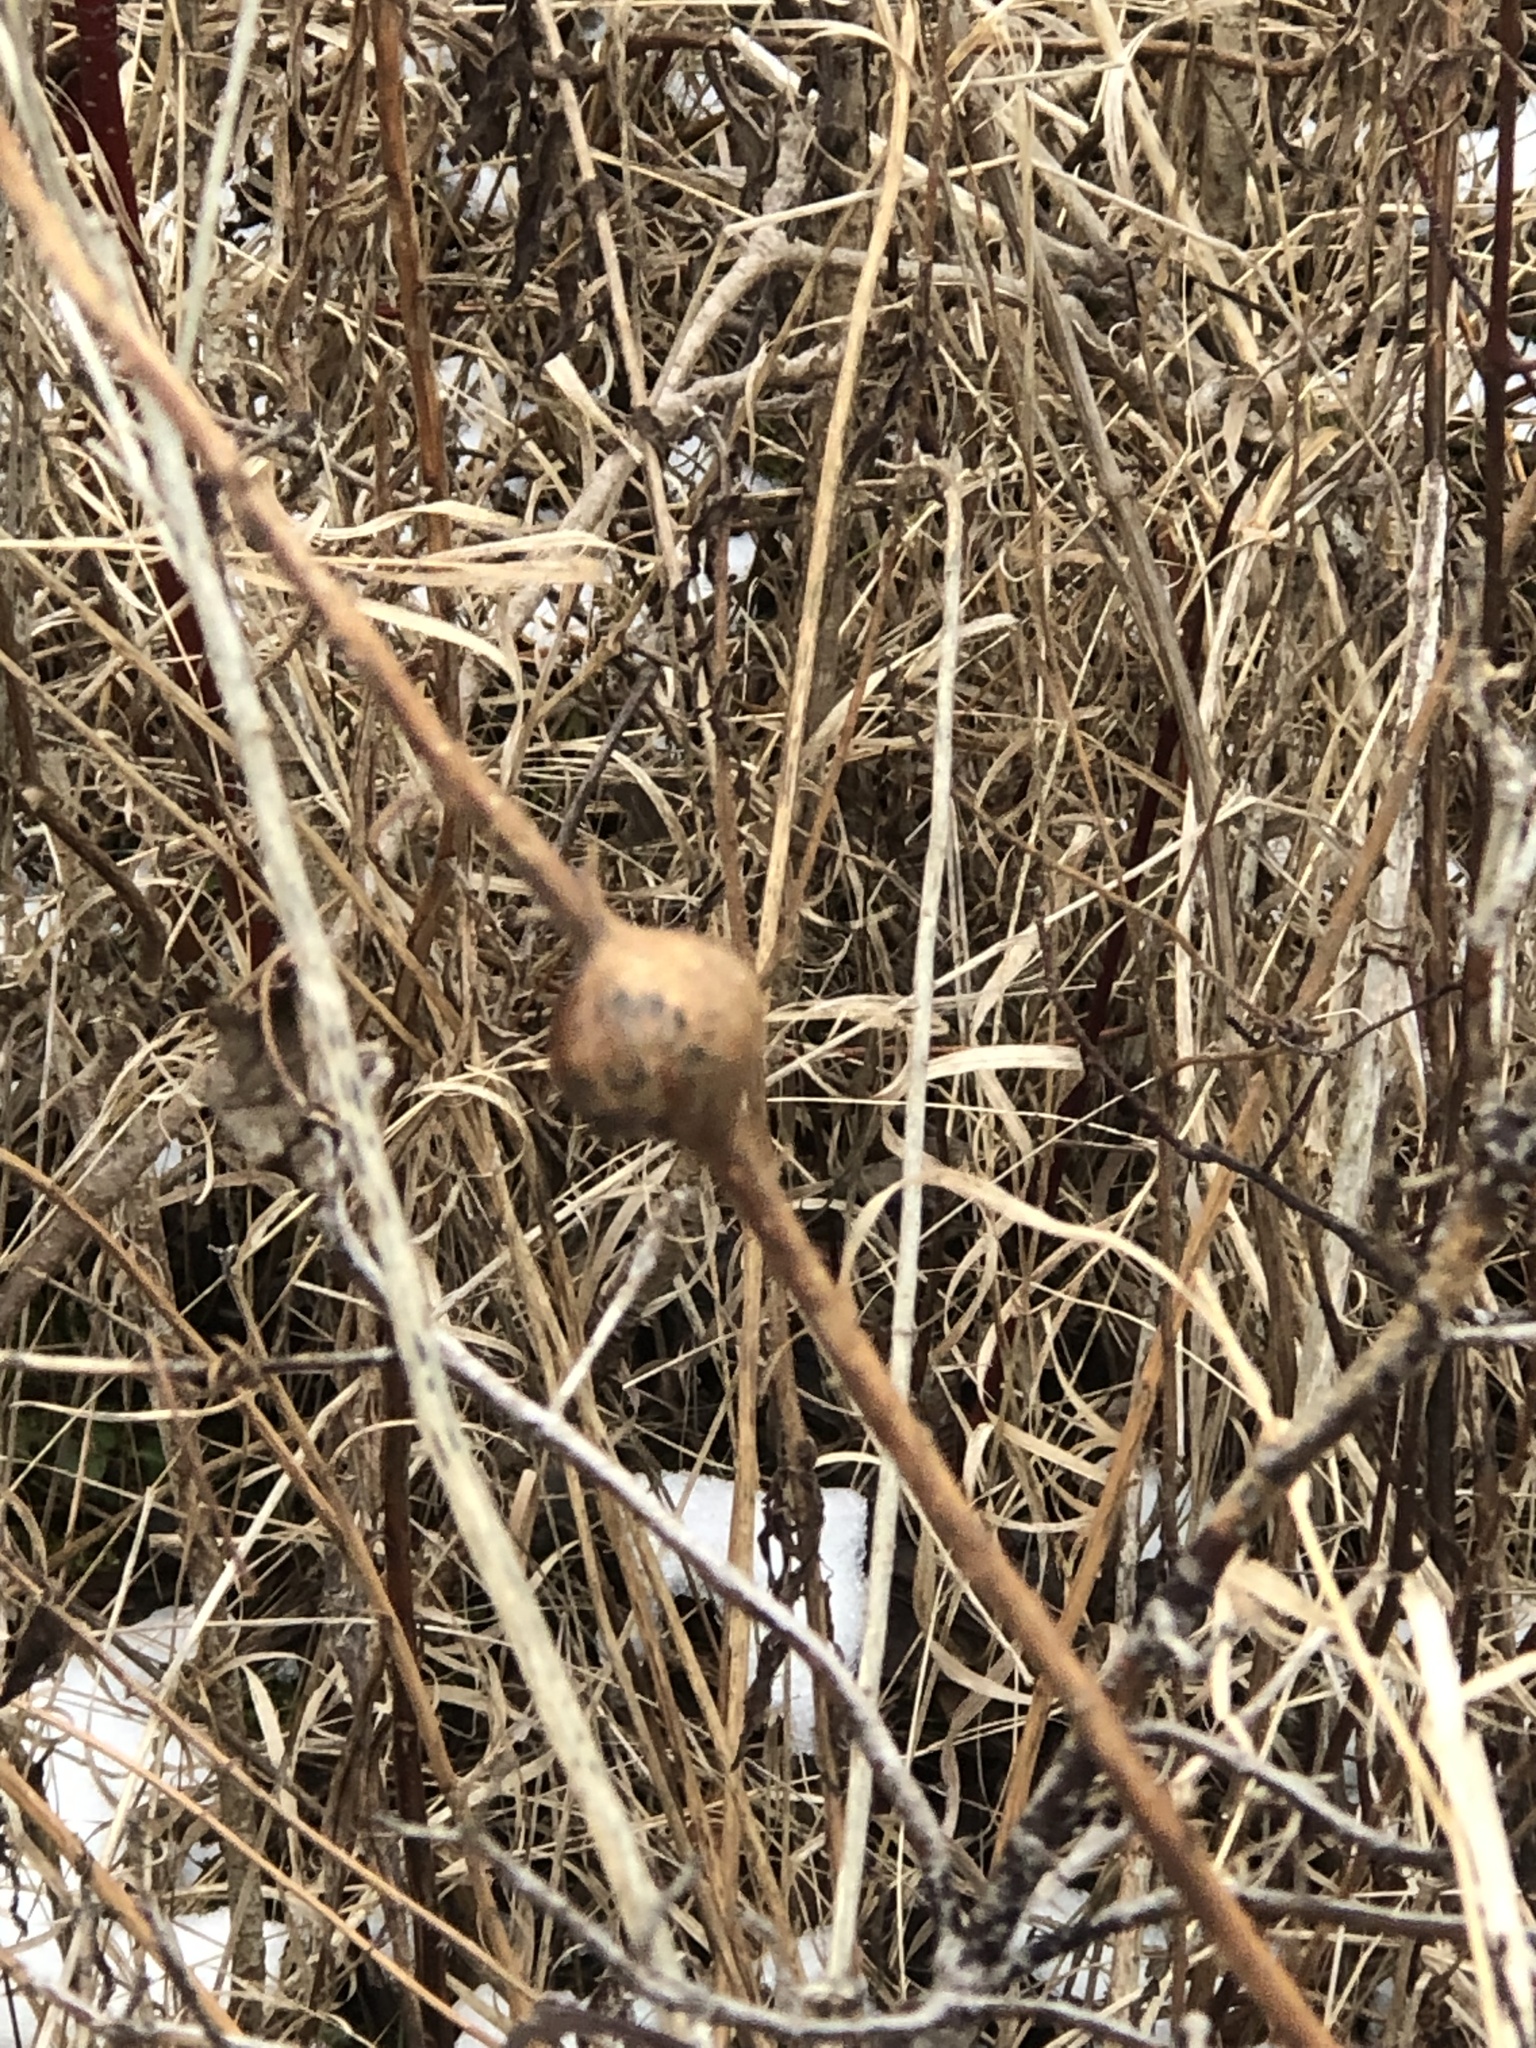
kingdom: Animalia
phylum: Arthropoda
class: Insecta
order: Diptera
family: Tephritidae
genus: Eurosta
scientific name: Eurosta solidaginis
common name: Goldenrod gall fly
